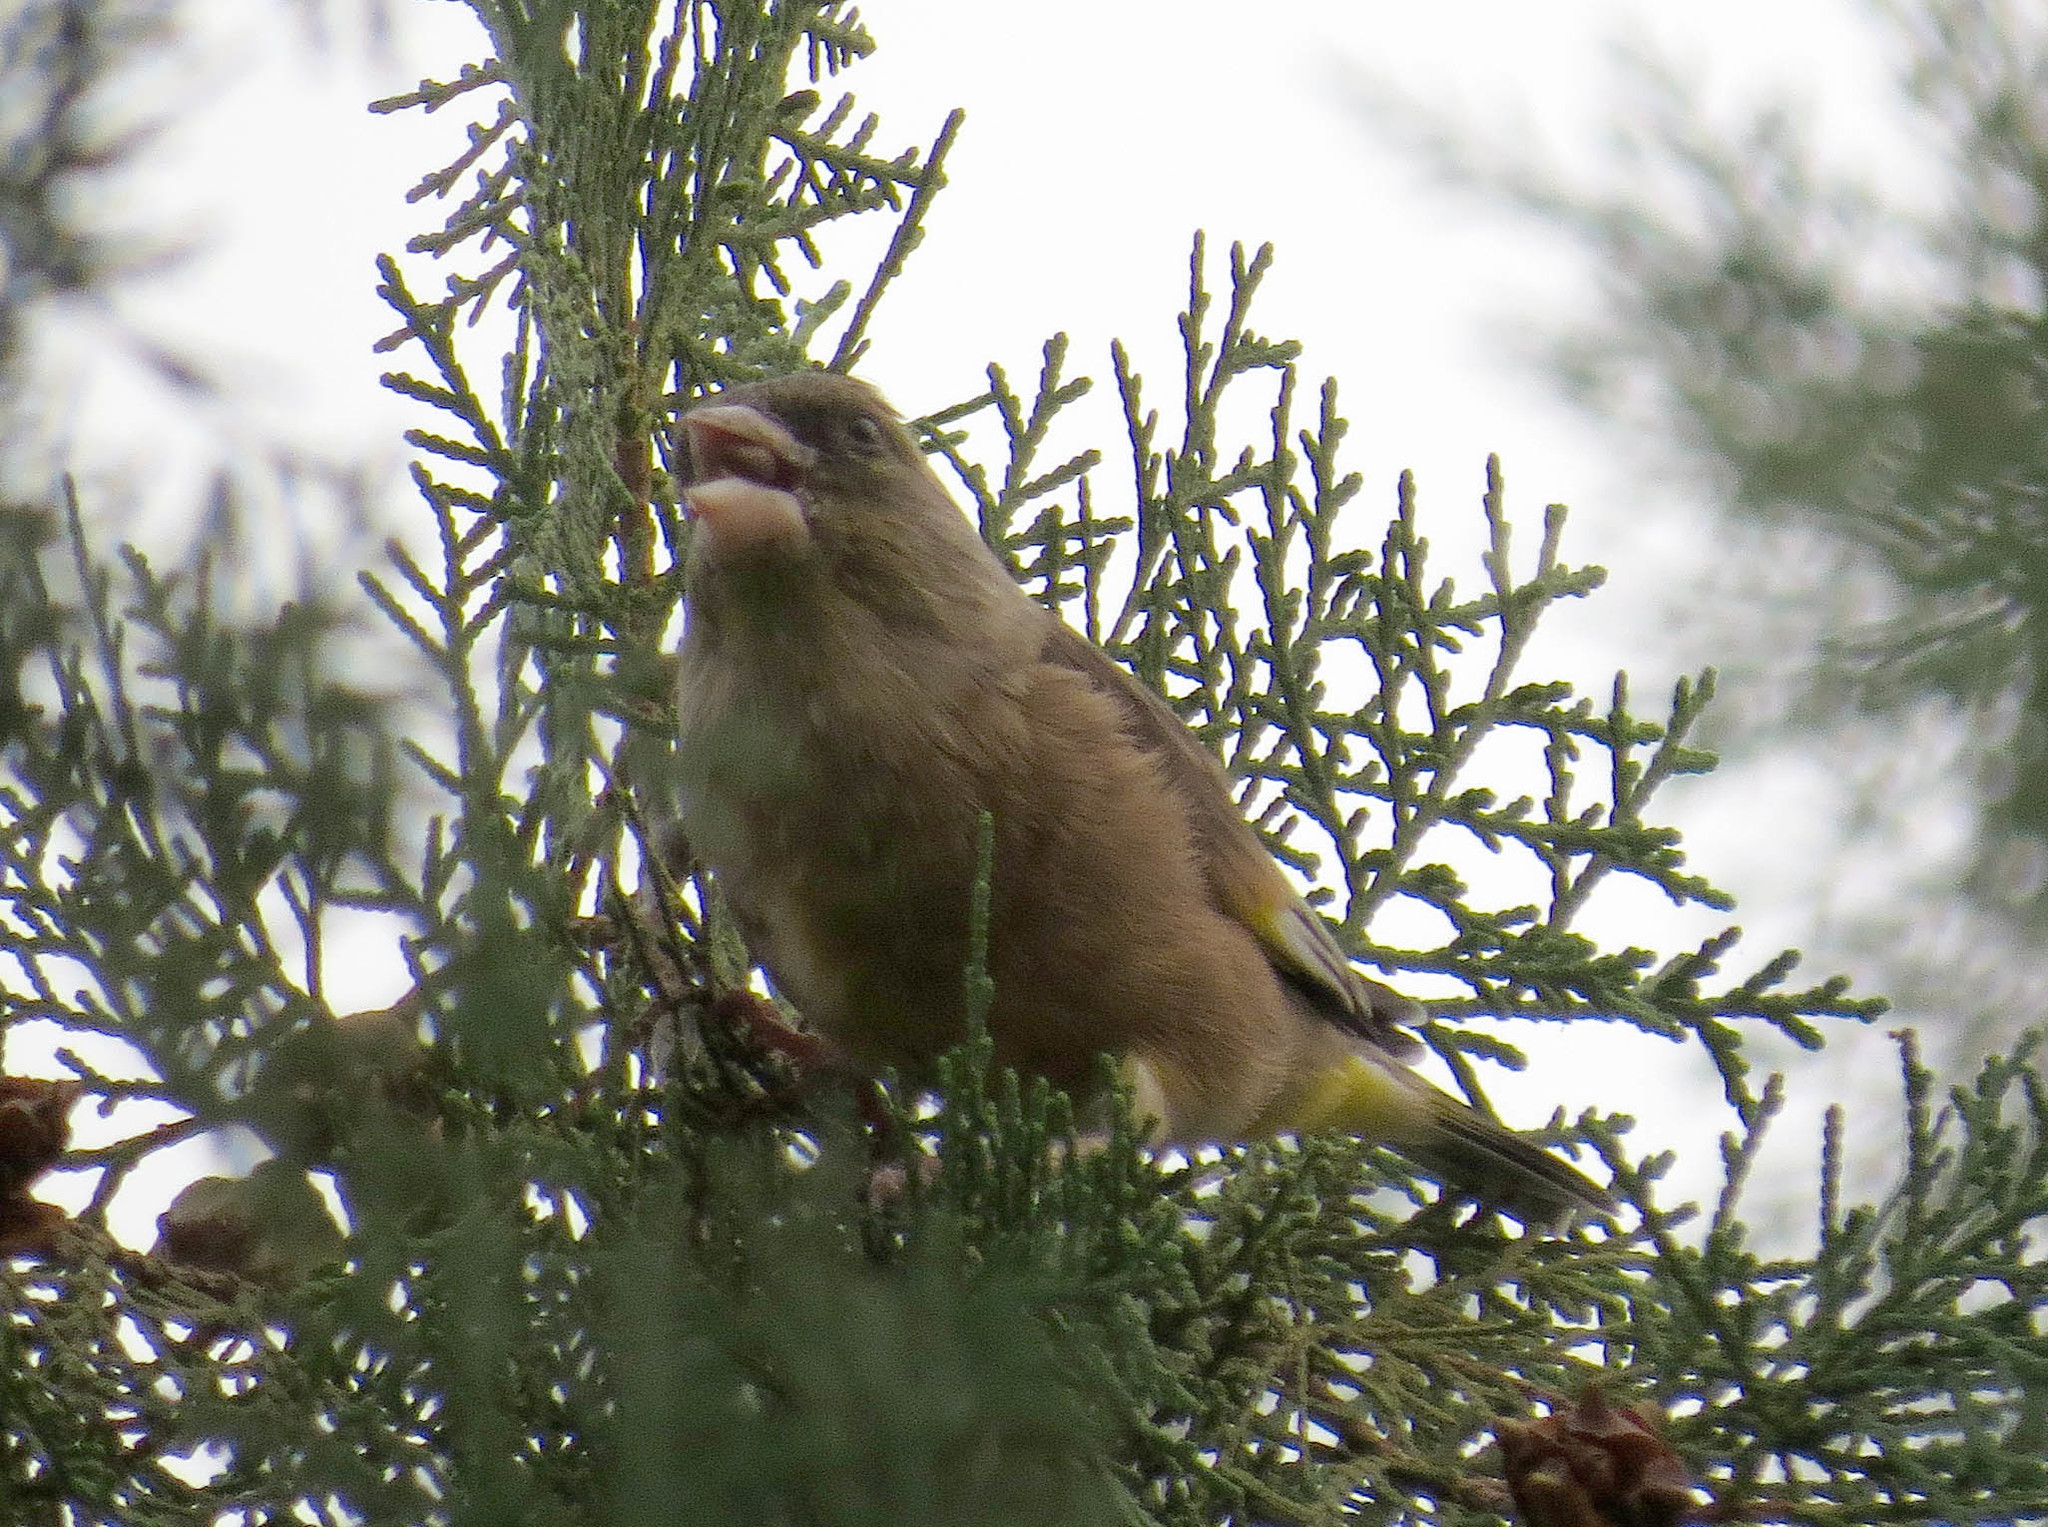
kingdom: Plantae
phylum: Tracheophyta
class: Liliopsida
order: Poales
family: Poaceae
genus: Chloris
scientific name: Chloris sinica
